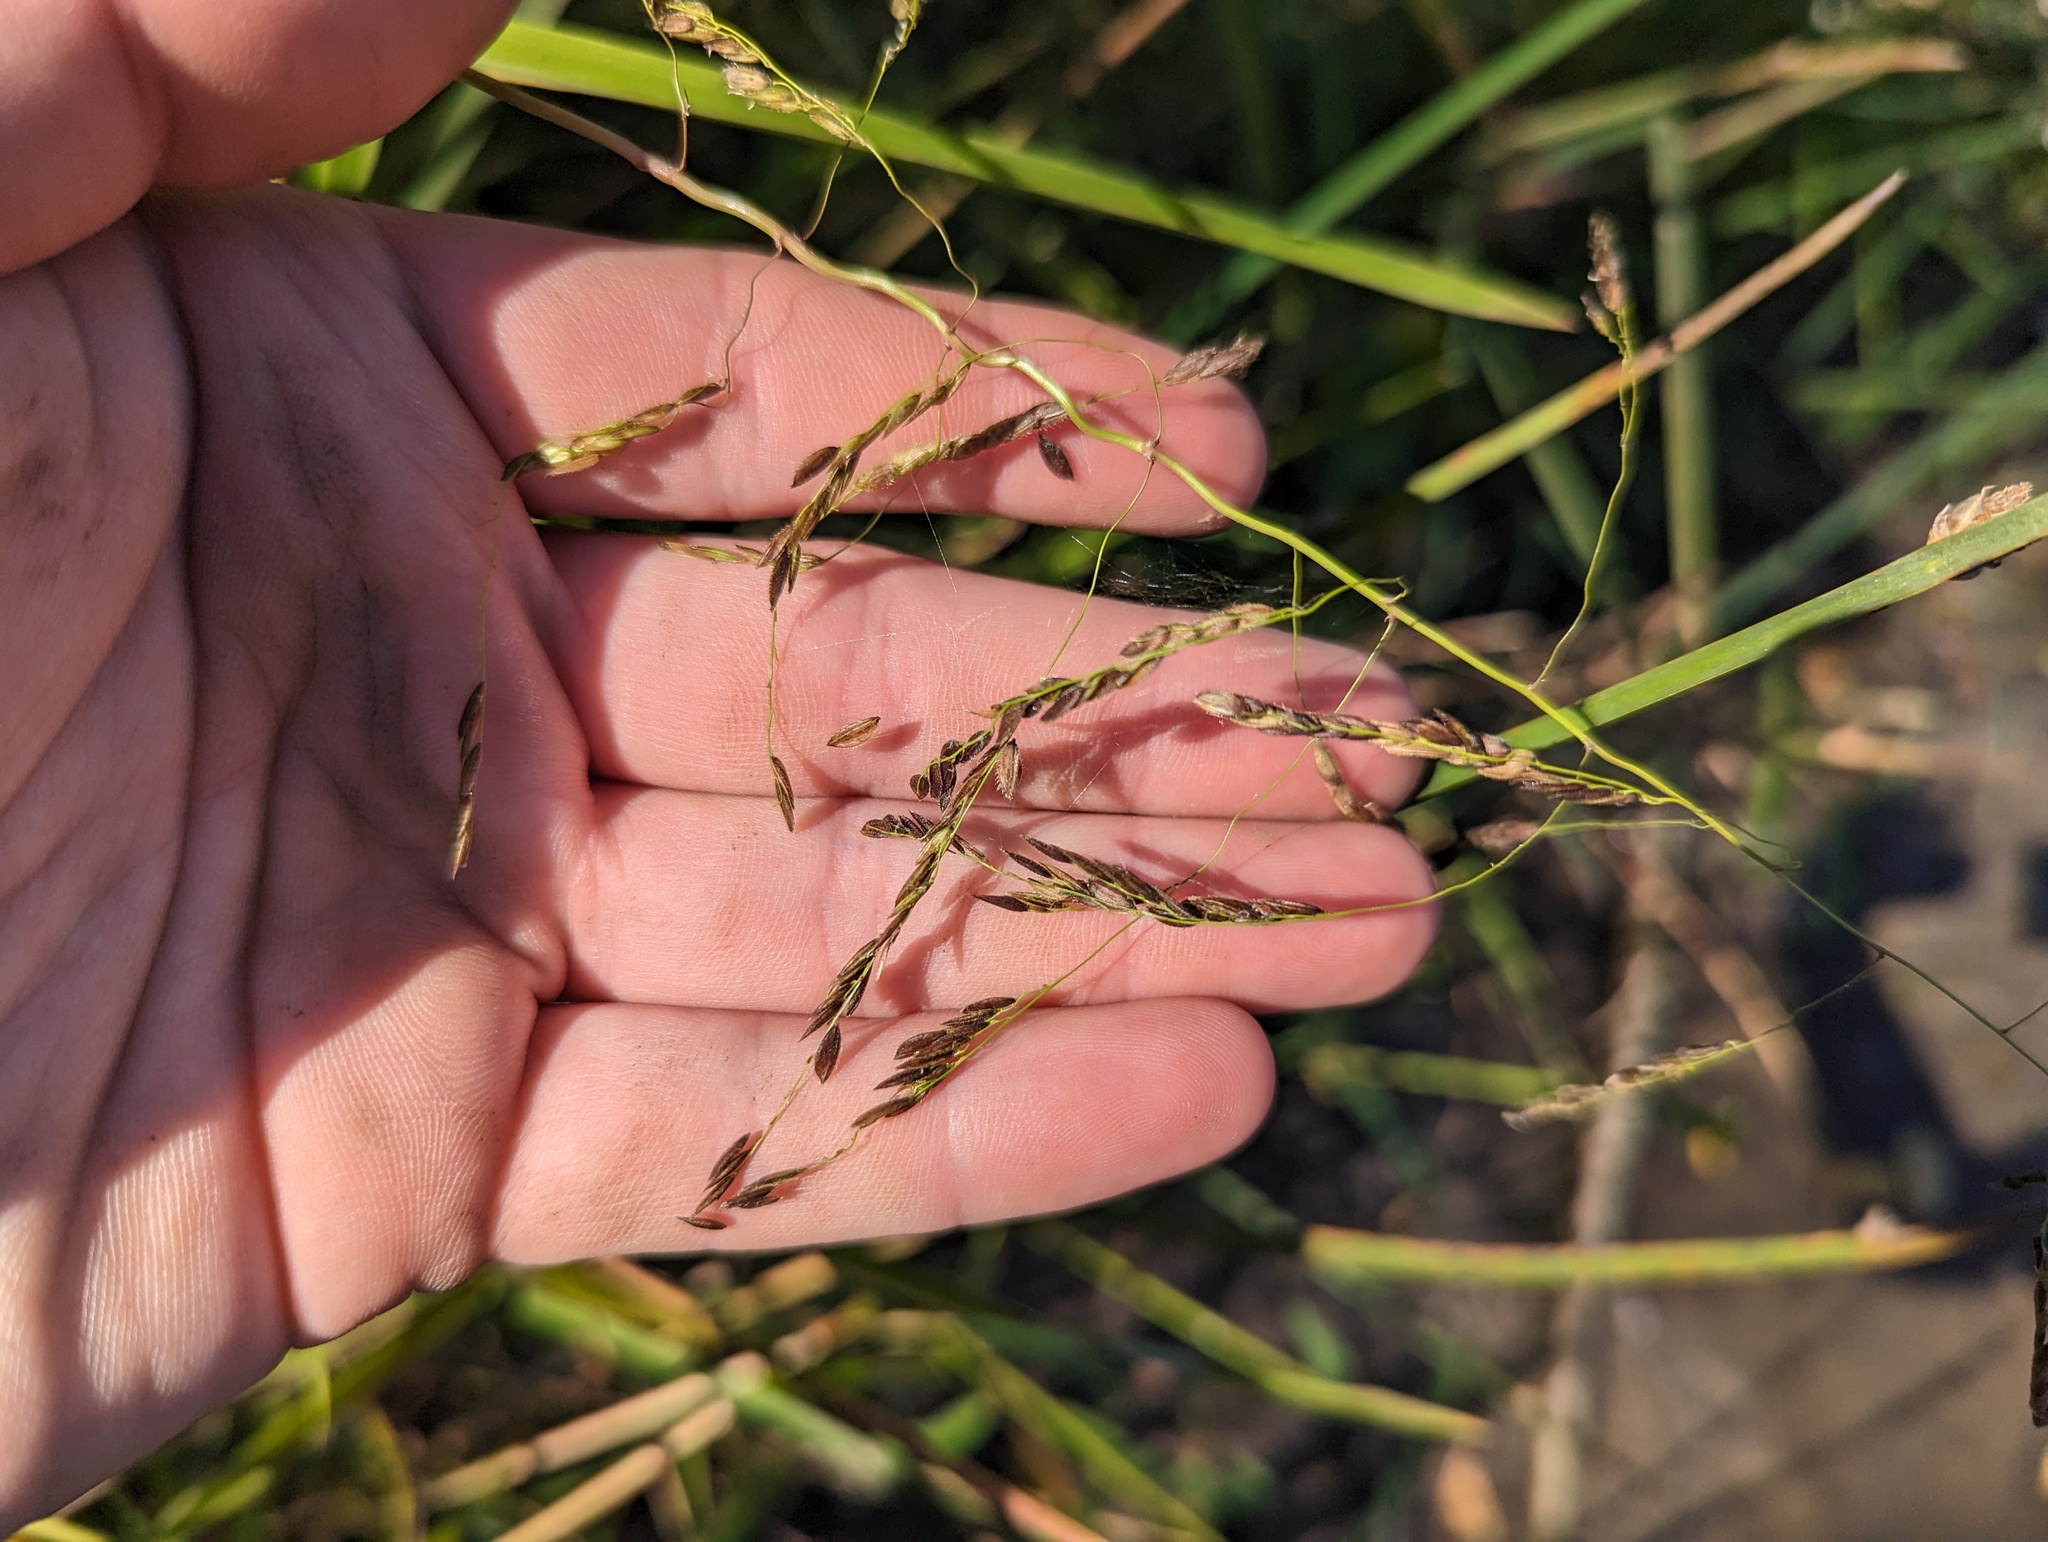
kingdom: Plantae
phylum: Tracheophyta
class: Liliopsida
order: Poales
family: Poaceae
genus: Leersia
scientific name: Leersia oryzoides
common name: Cut-grass
